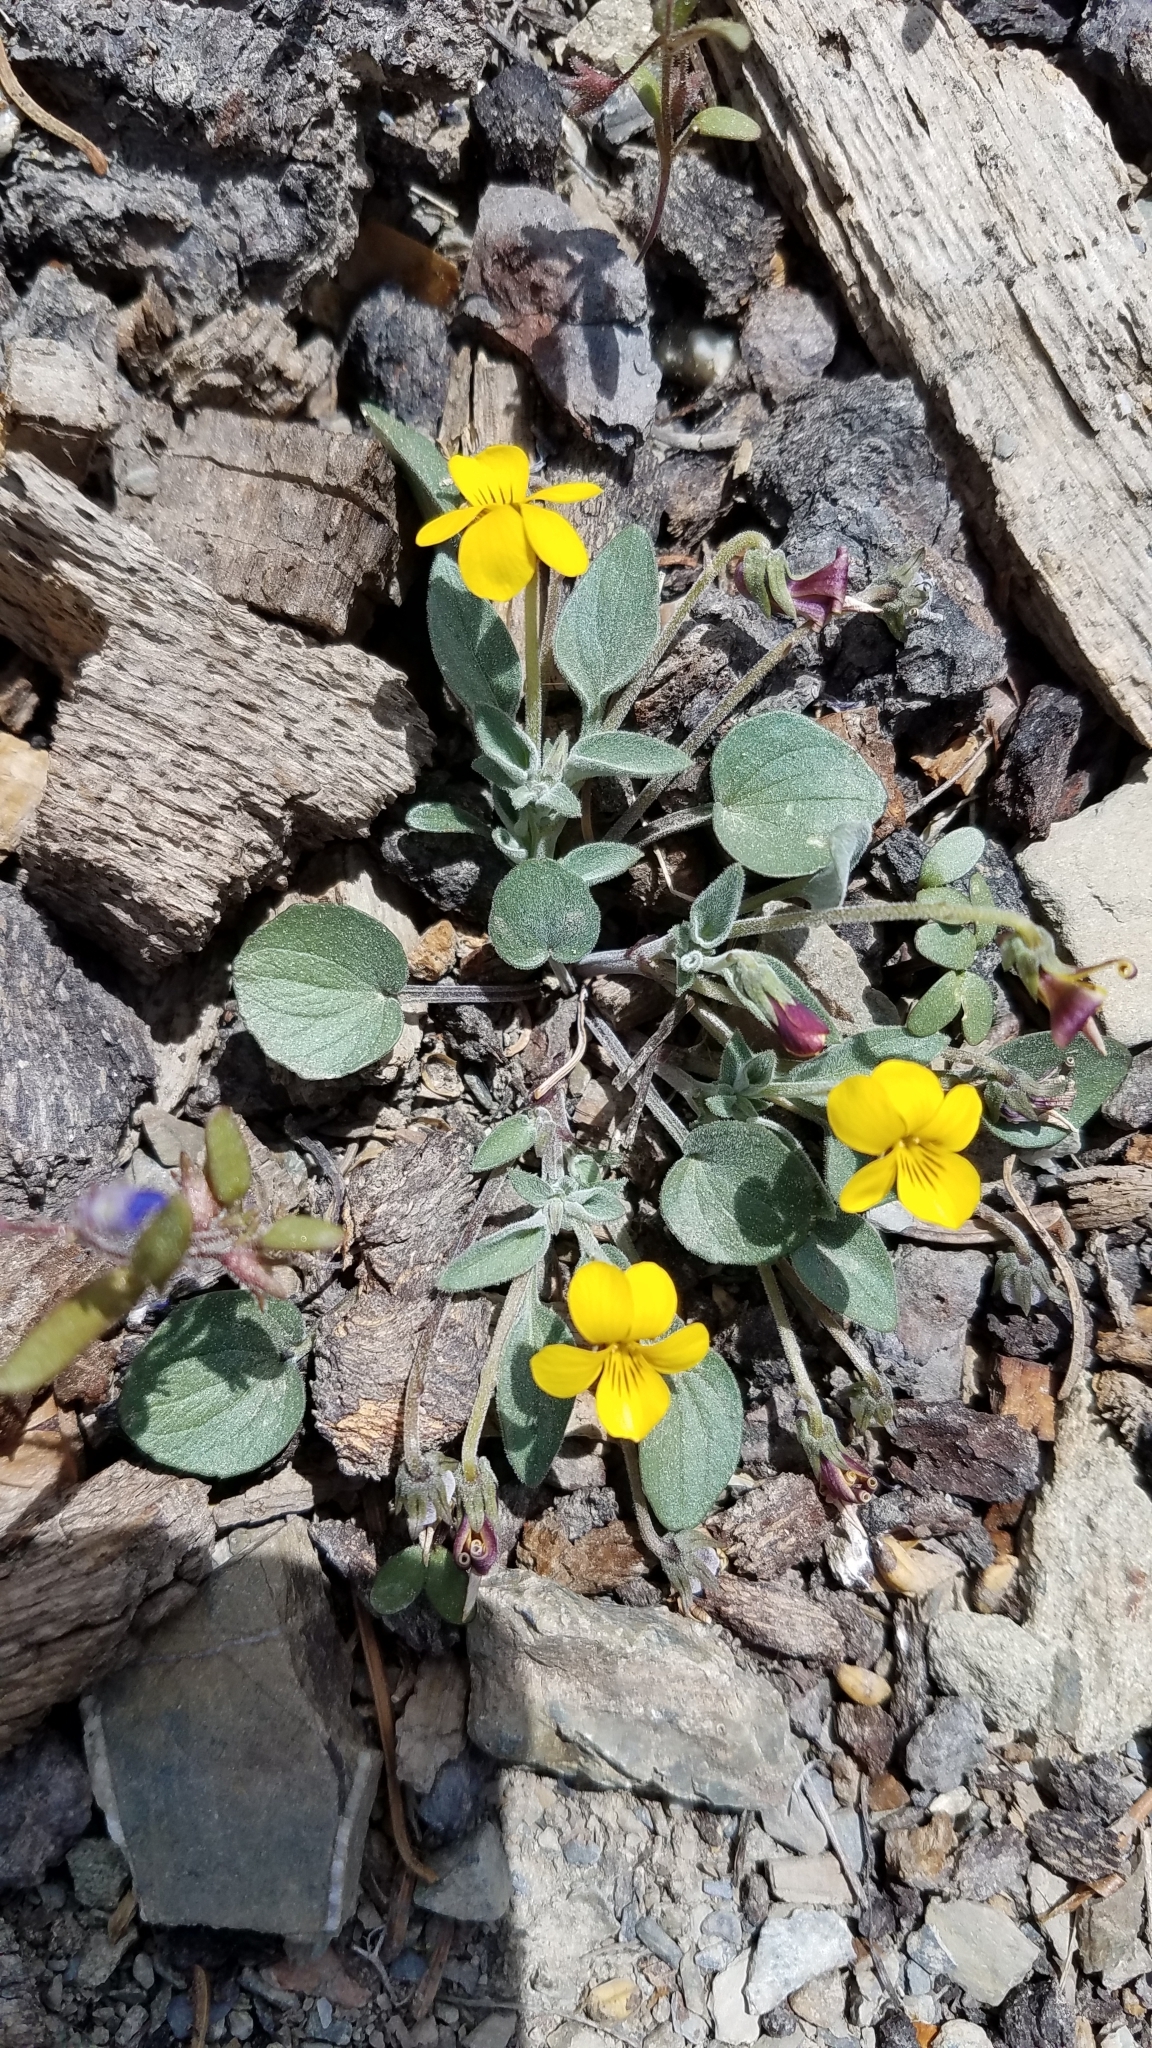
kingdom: Plantae
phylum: Tracheophyta
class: Magnoliopsida
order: Malpighiales
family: Violaceae
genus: Viola
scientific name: Viola purpurea
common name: Pine violet
